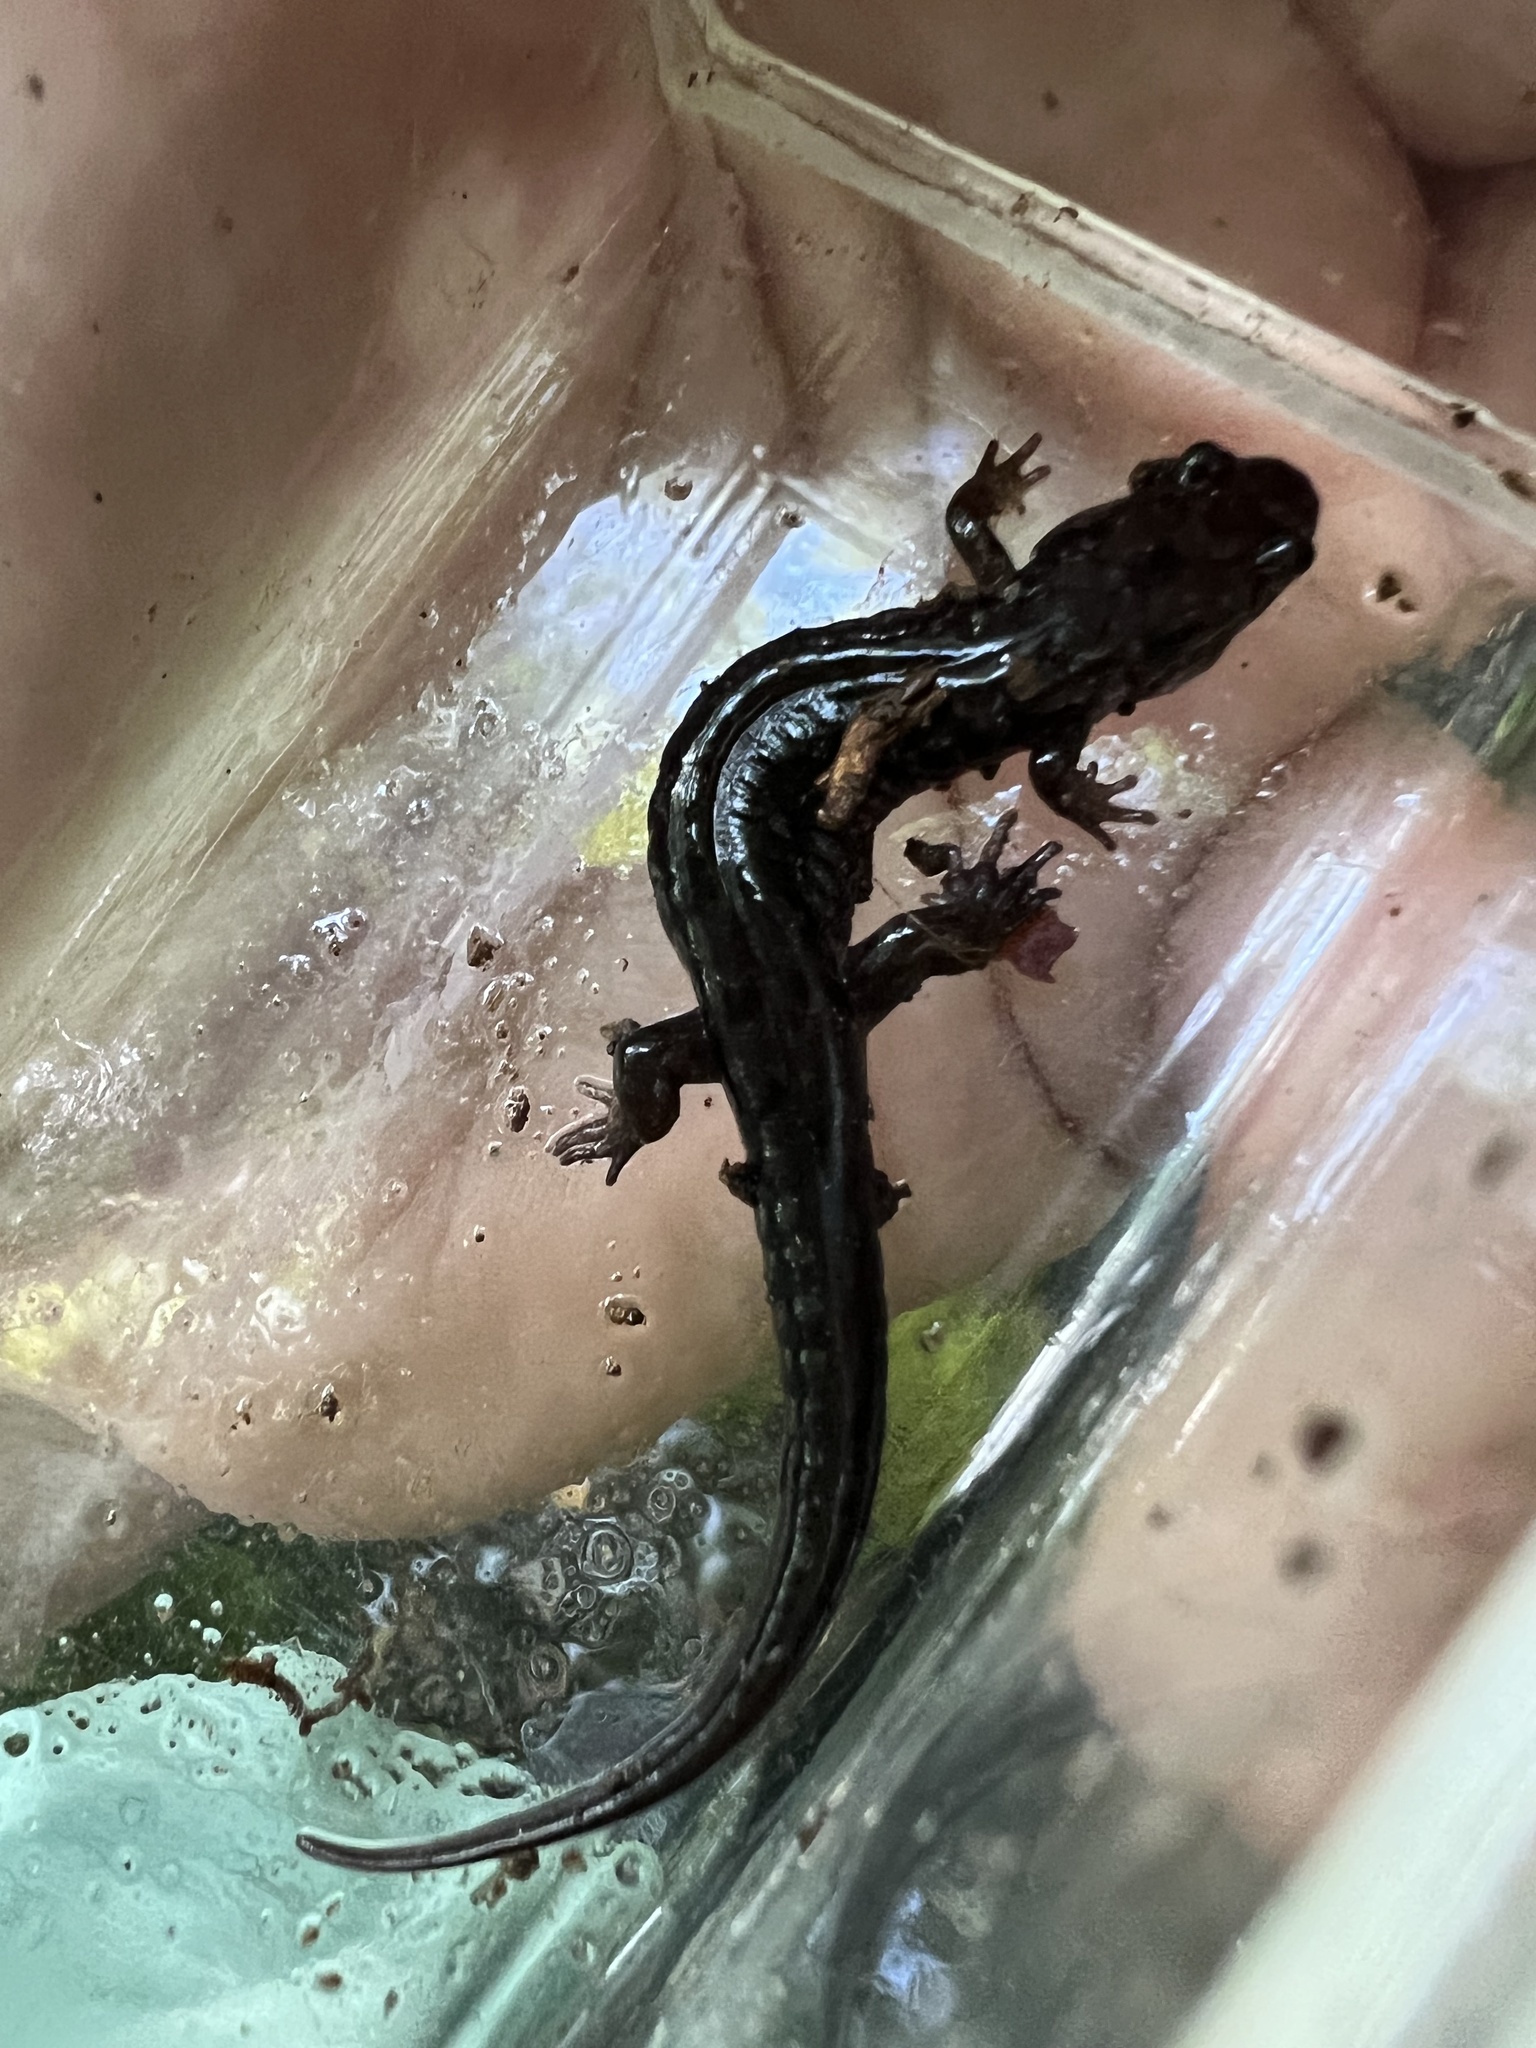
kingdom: Animalia
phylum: Chordata
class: Amphibia
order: Caudata
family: Plethodontidae
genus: Desmognathus
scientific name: Desmognathus ocoee
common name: Ocoee salamander
